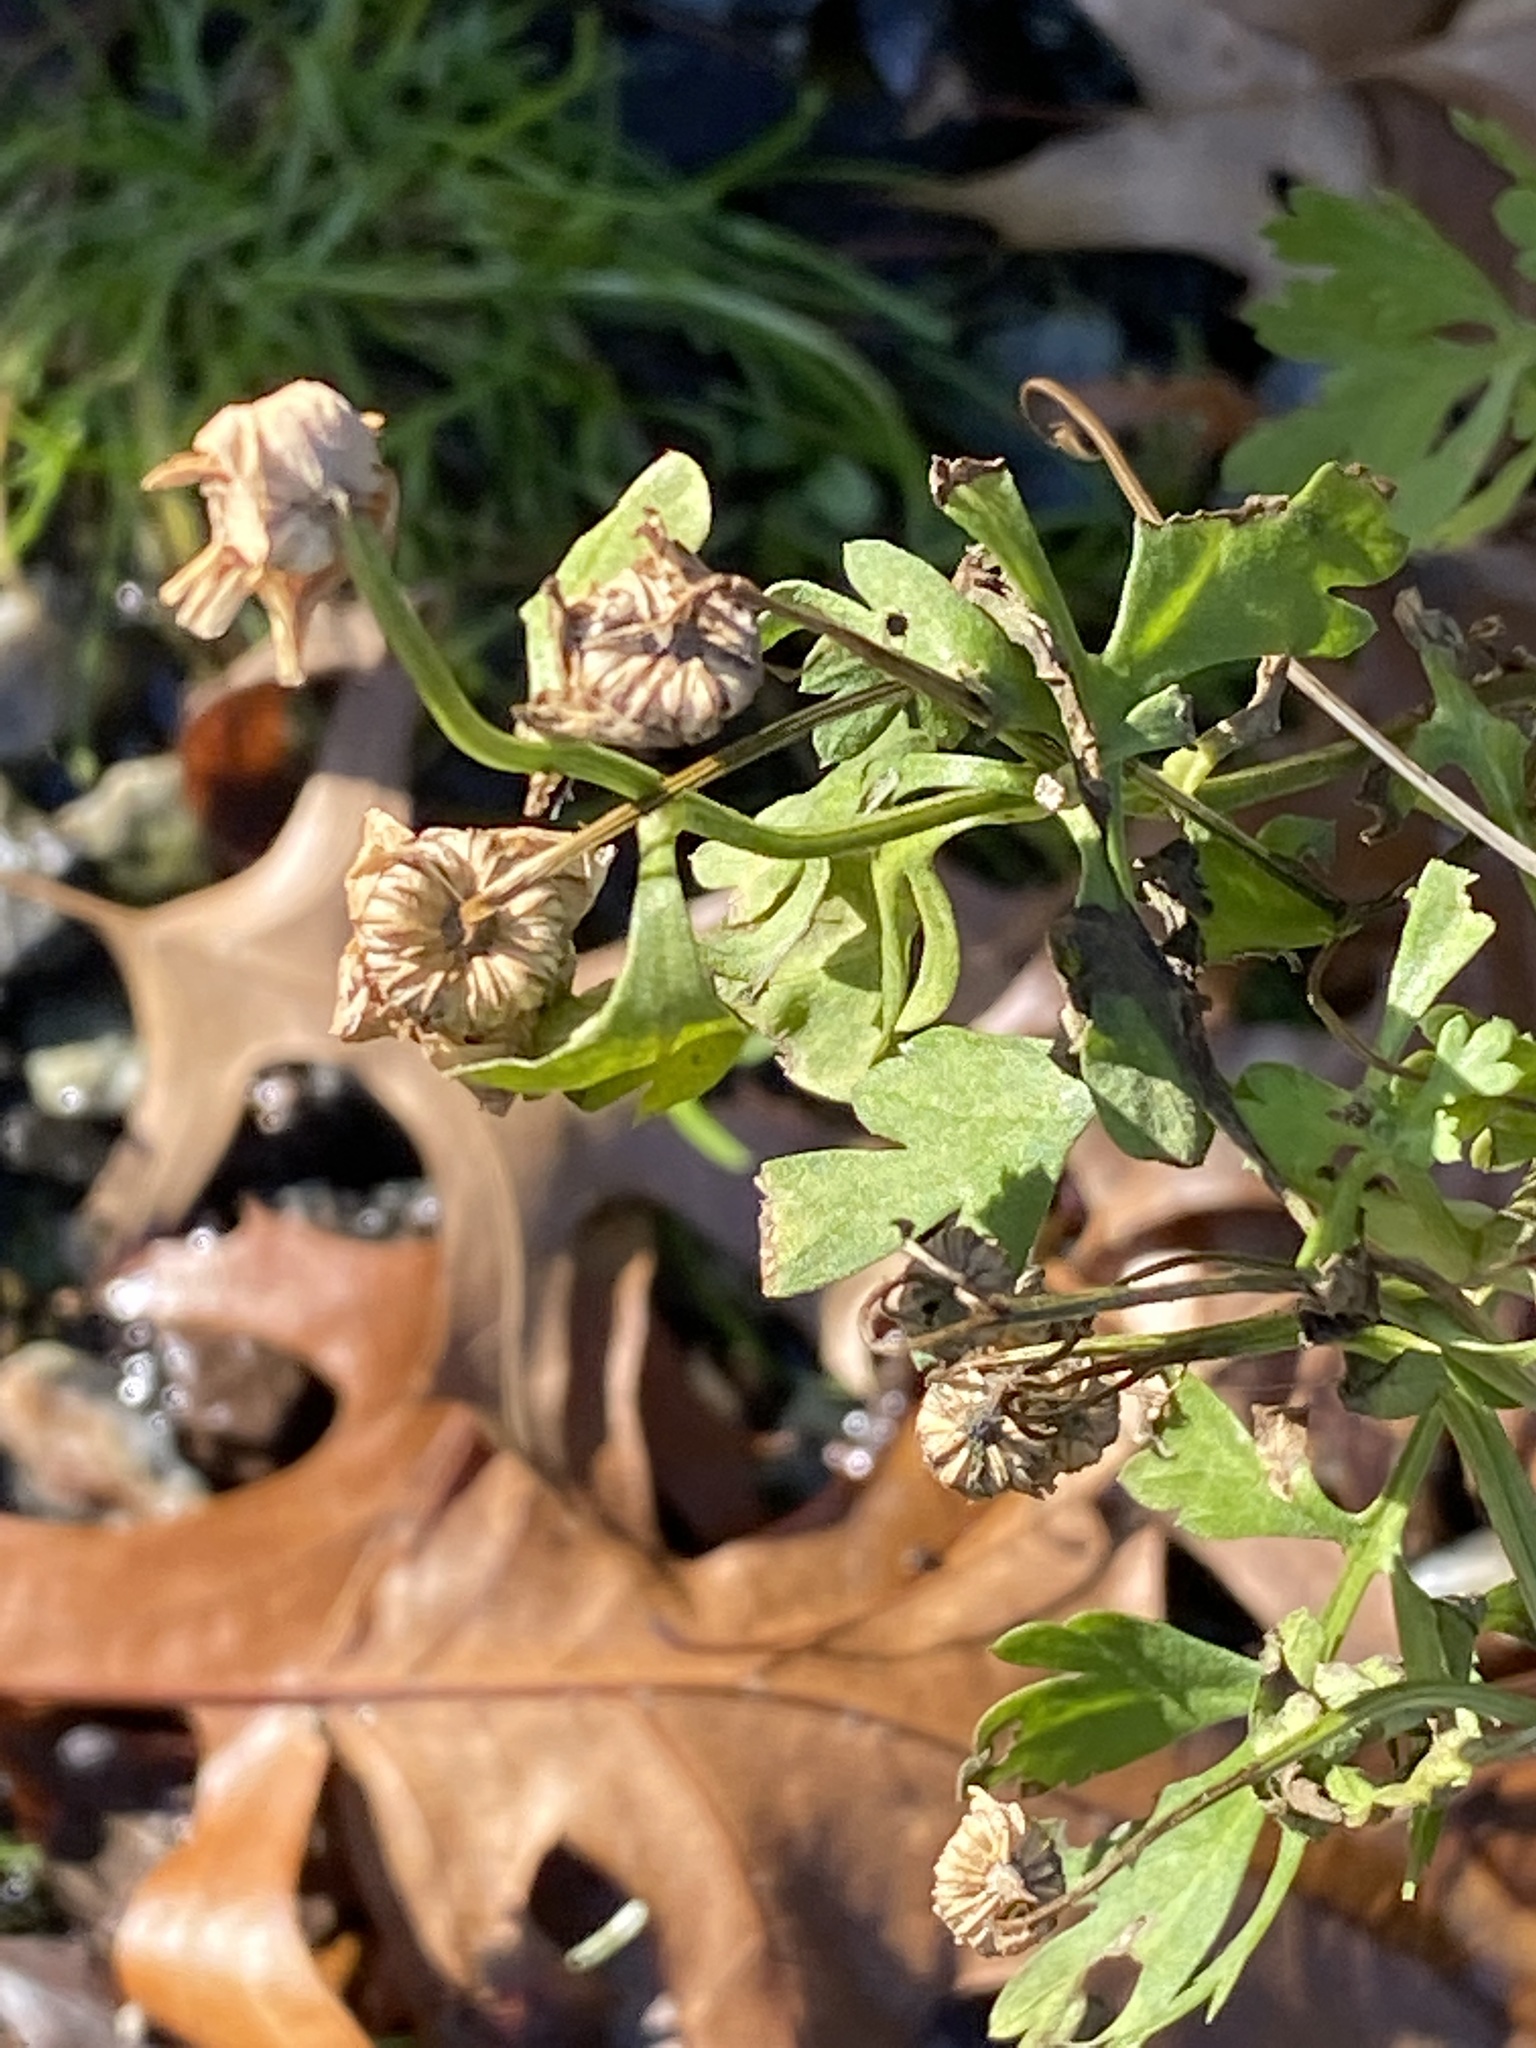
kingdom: Plantae
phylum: Tracheophyta
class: Magnoliopsida
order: Asterales
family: Asteraceae
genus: Tanacetum
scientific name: Tanacetum parthenium
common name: Feverfew
